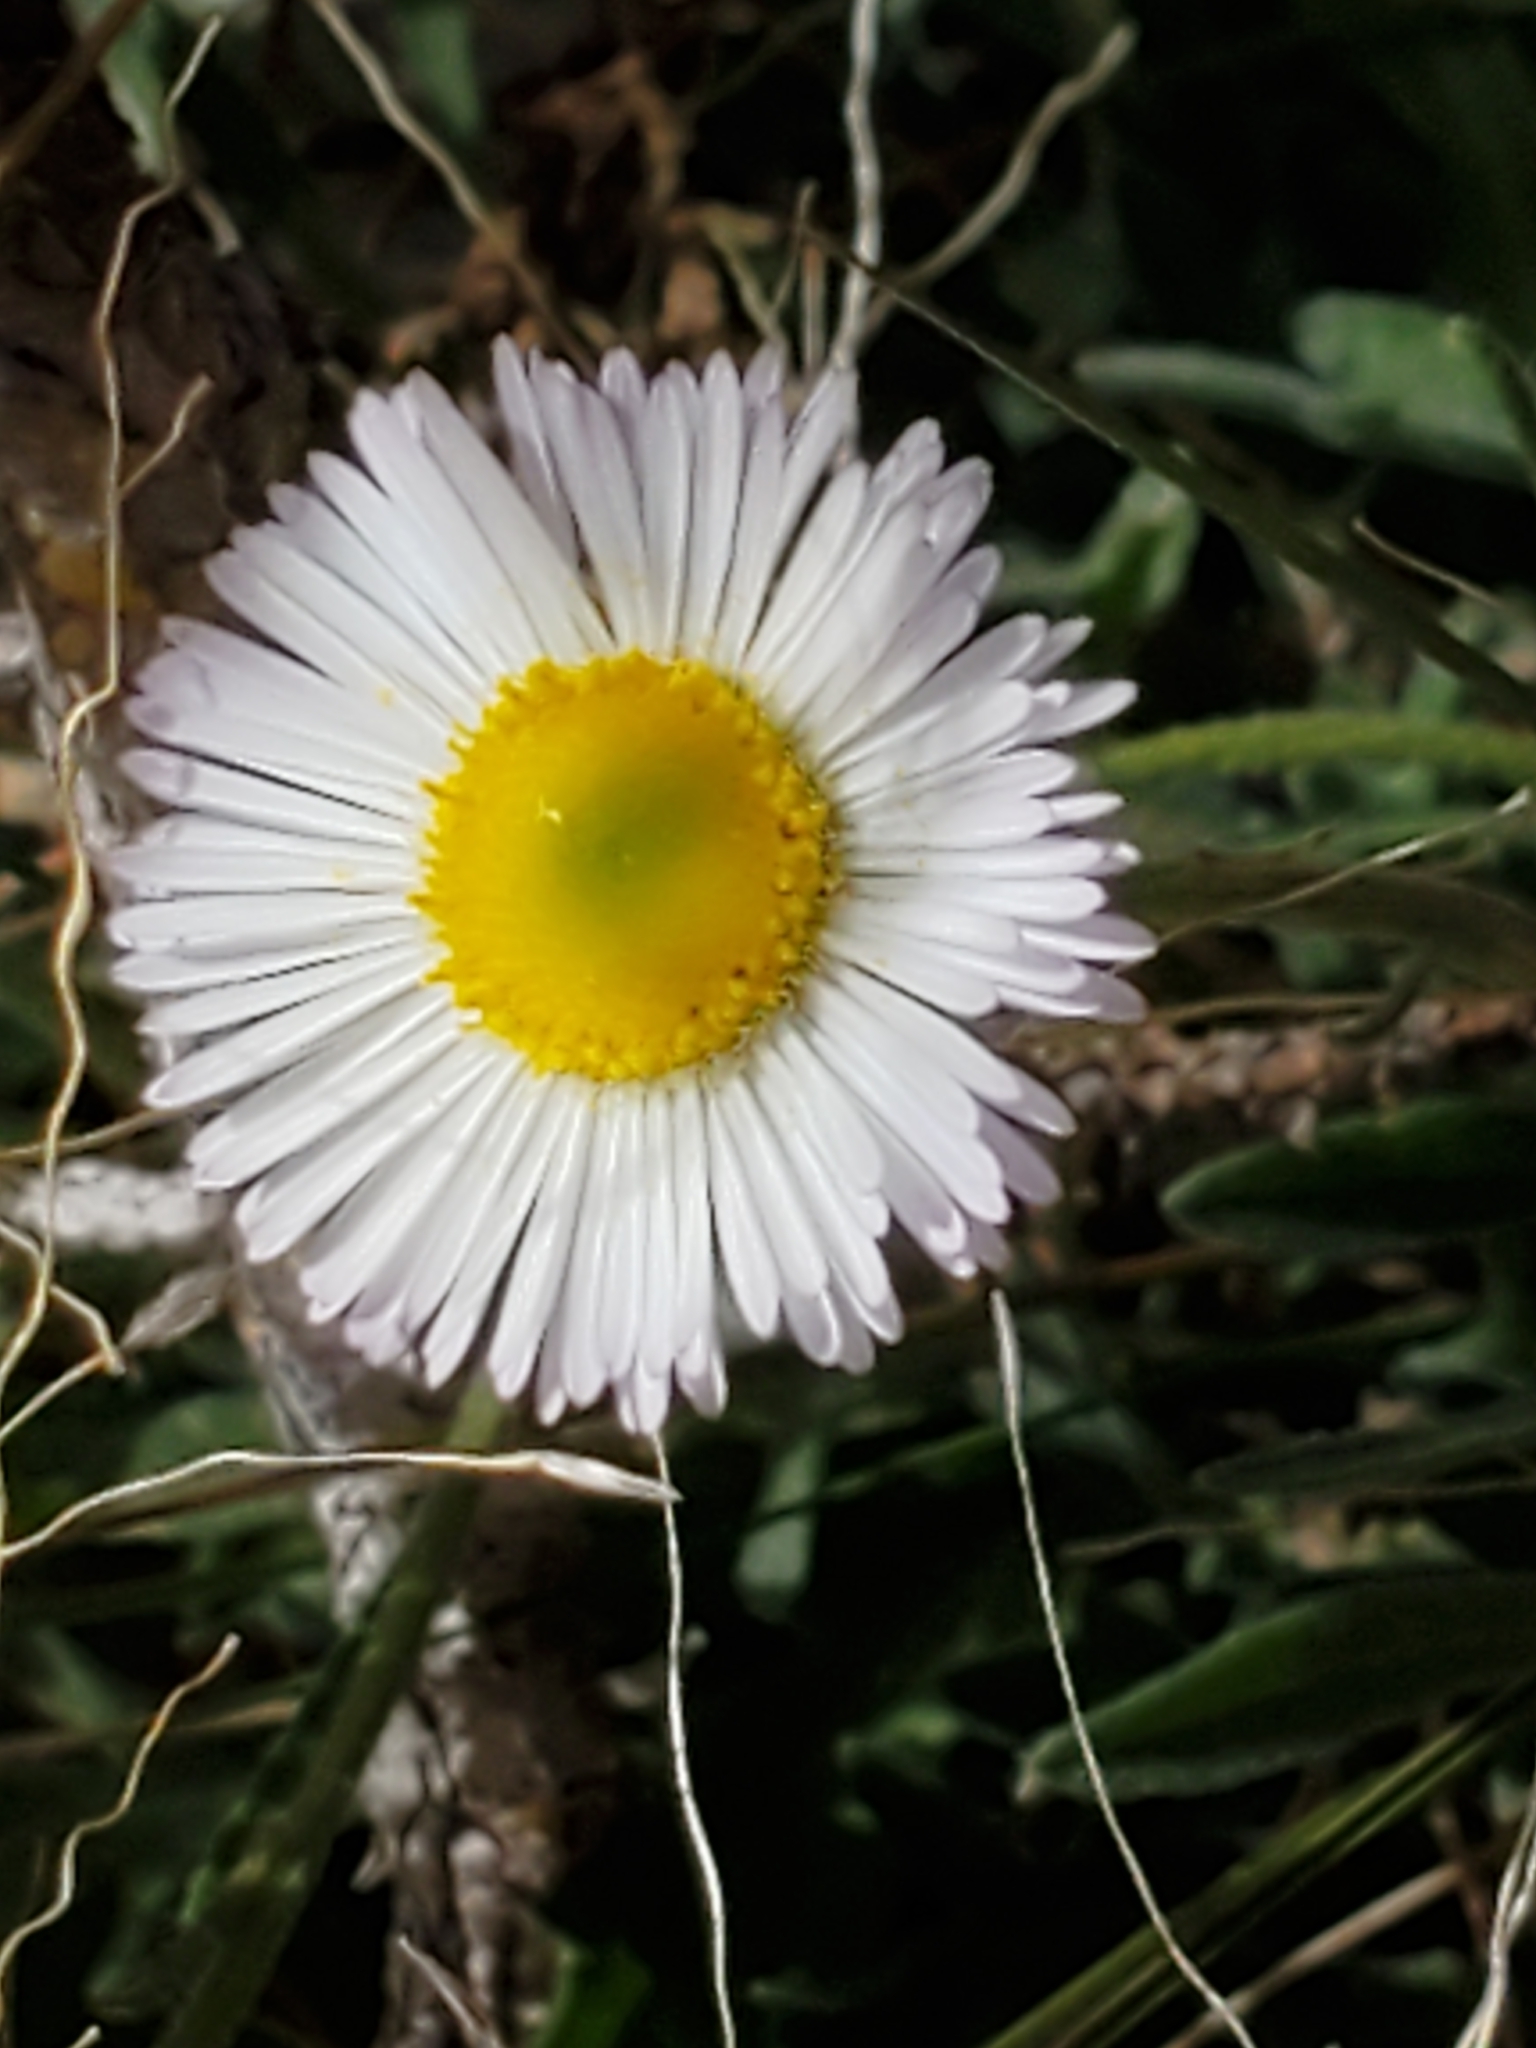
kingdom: Plantae
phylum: Tracheophyta
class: Magnoliopsida
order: Asterales
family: Asteraceae
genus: Erigeron
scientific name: Erigeron modestus
